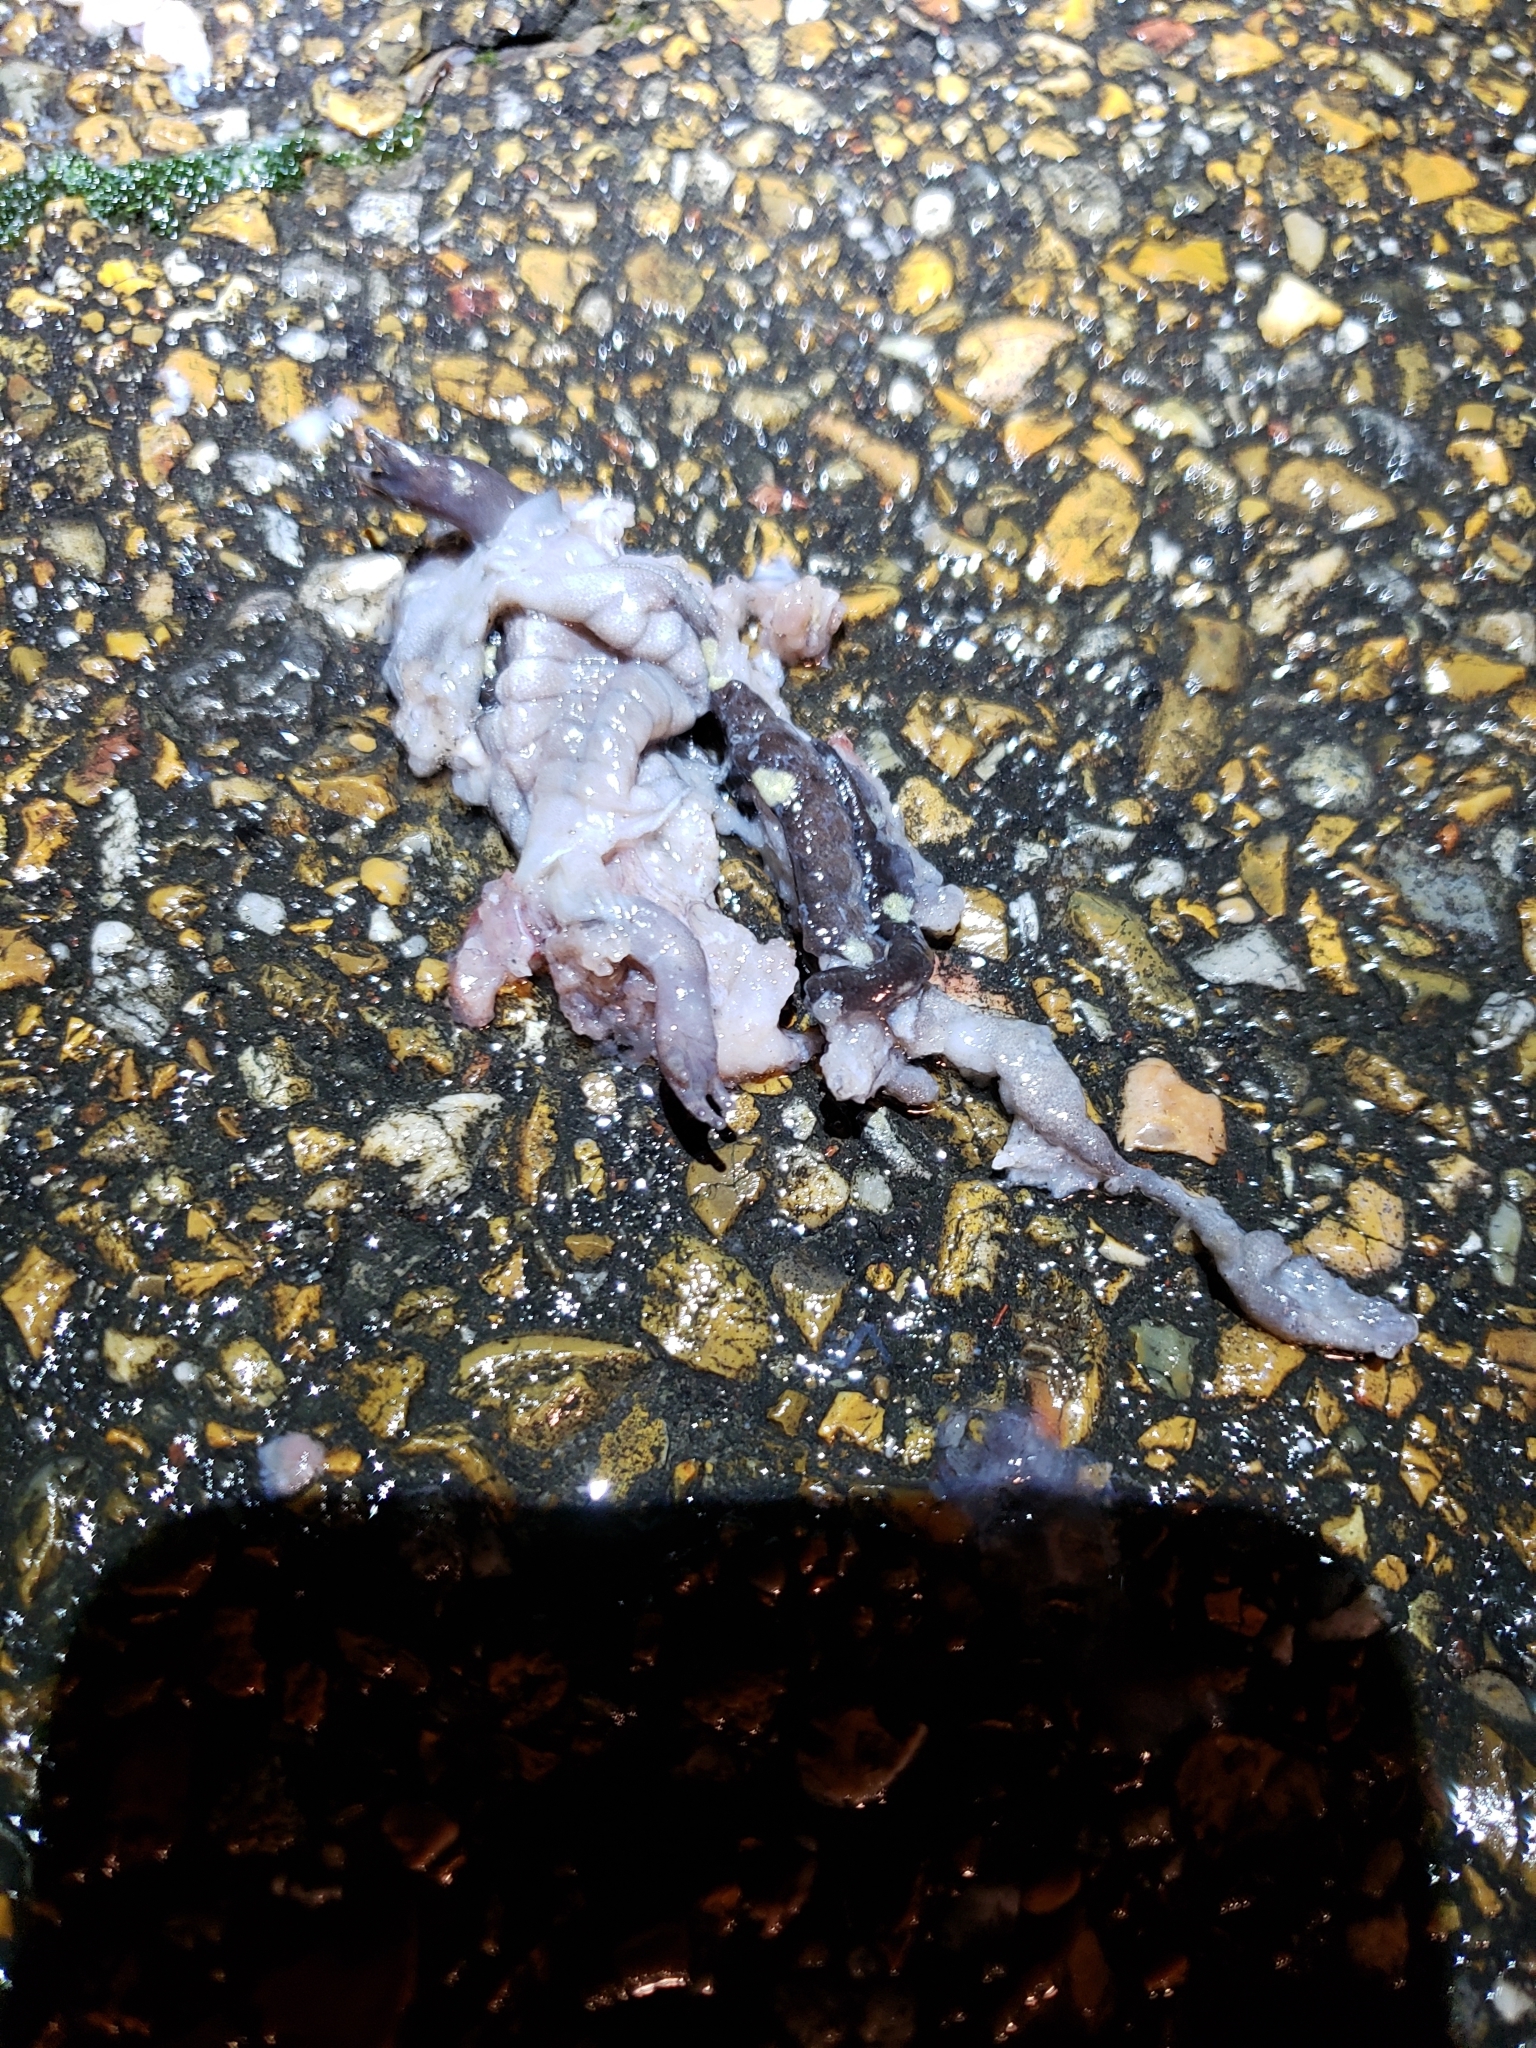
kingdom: Animalia
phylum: Chordata
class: Amphibia
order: Caudata
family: Ambystomatidae
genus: Ambystoma
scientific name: Ambystoma maculatum
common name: Spotted salamander
